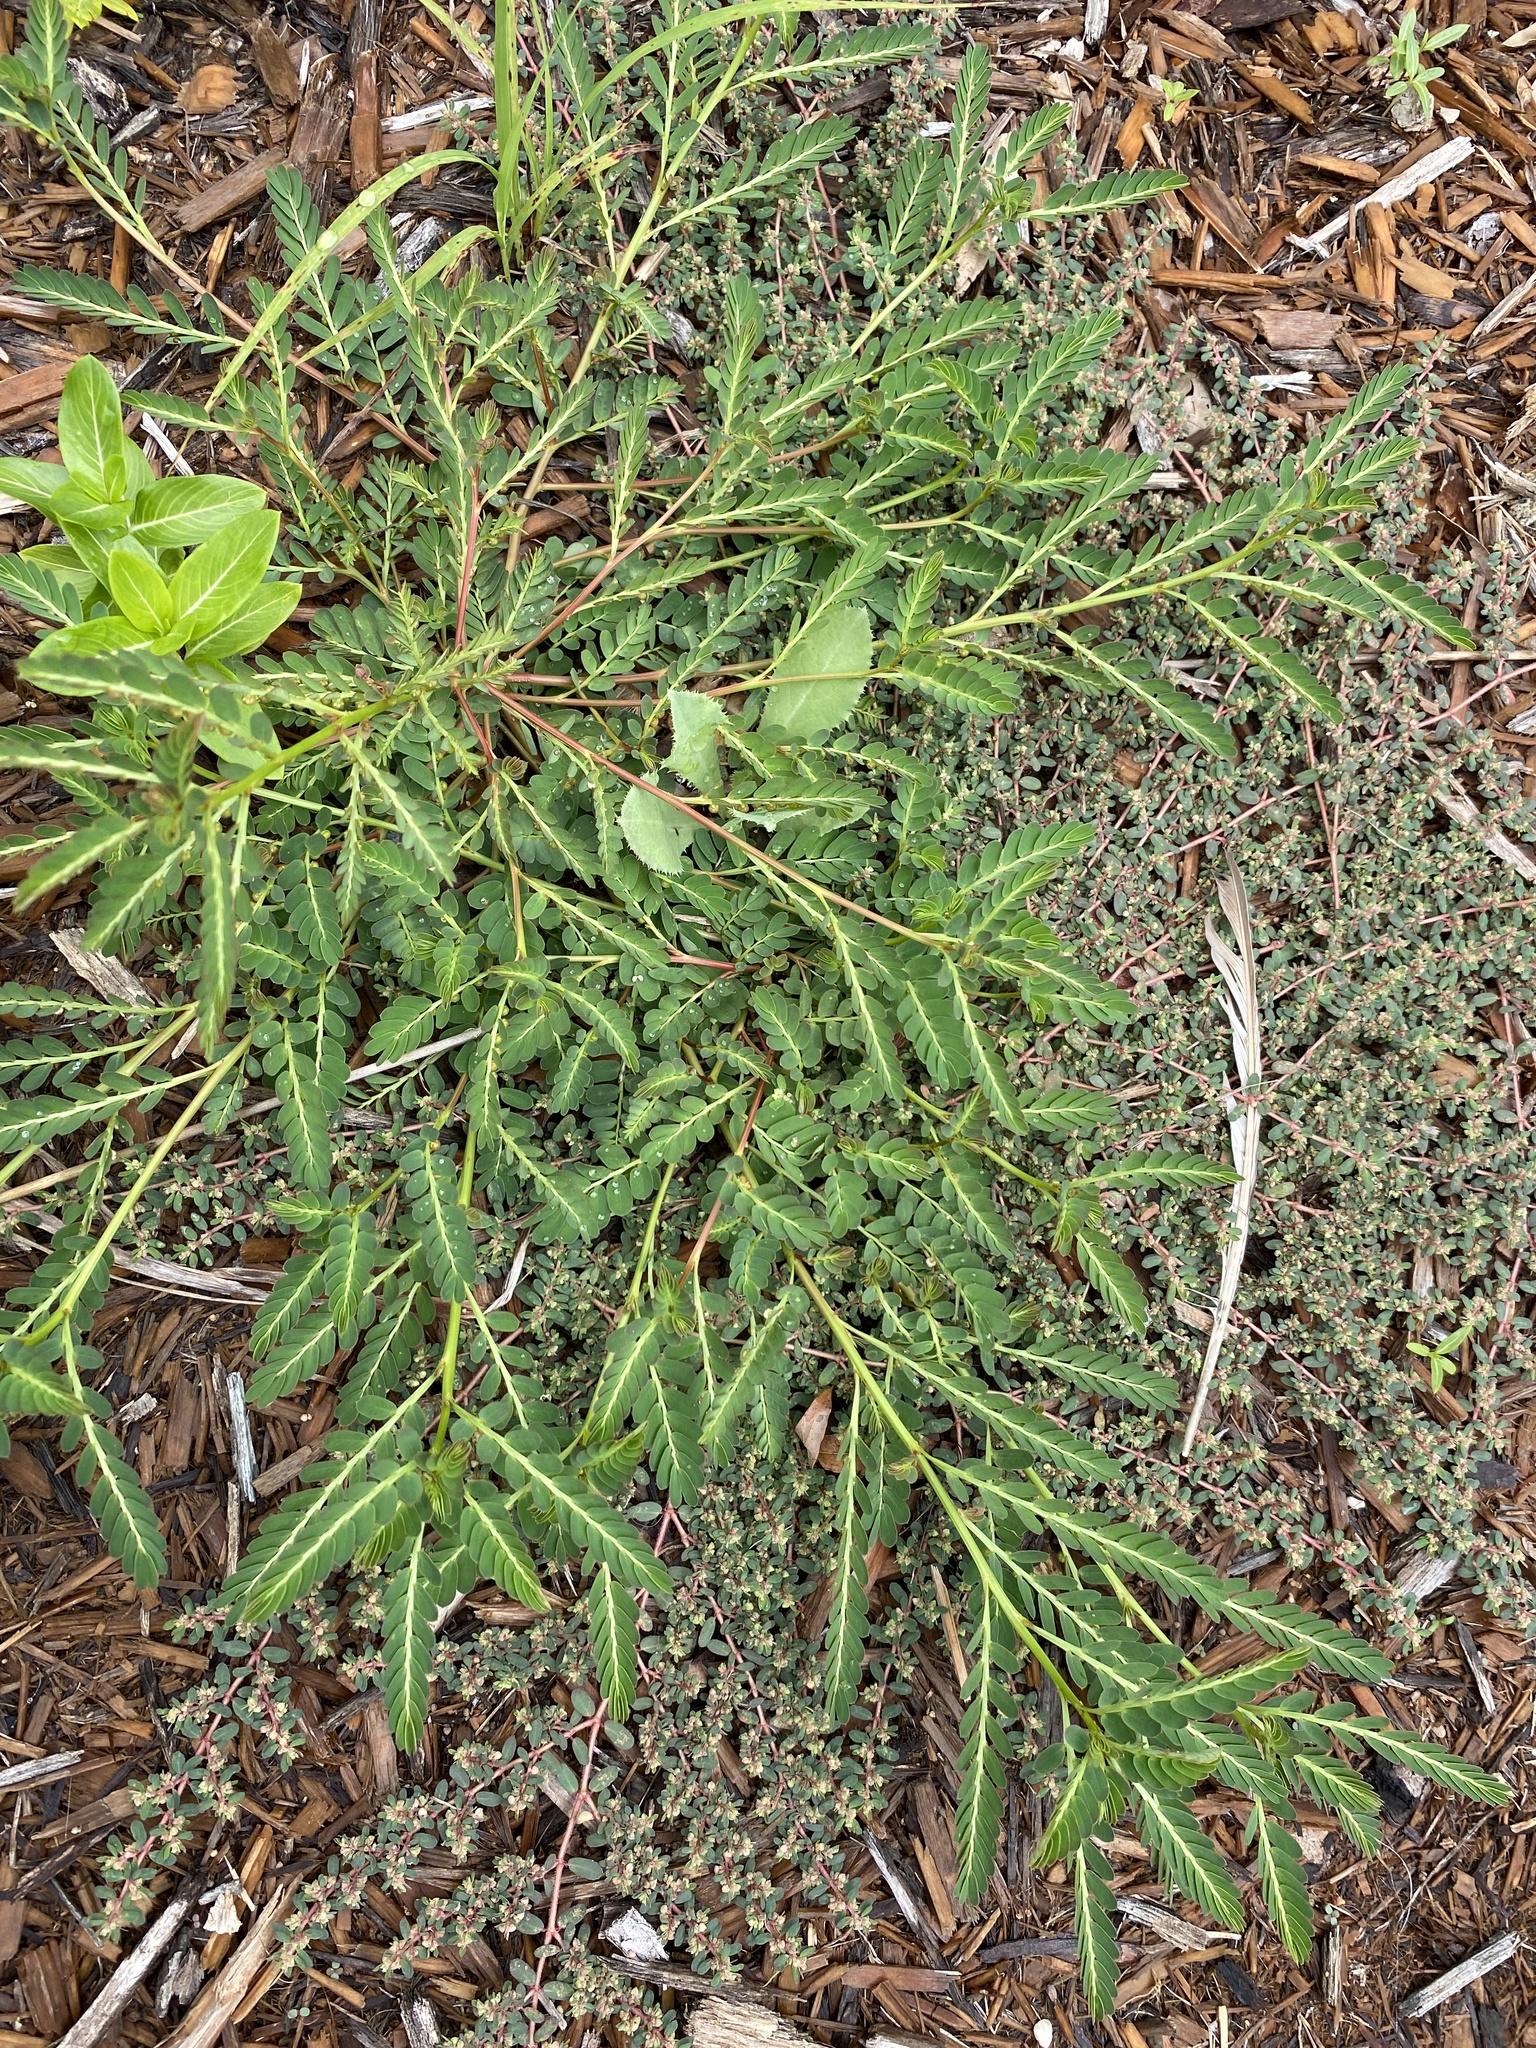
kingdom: Plantae
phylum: Tracheophyta
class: Magnoliopsida
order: Malpighiales
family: Phyllanthaceae
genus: Phyllanthus
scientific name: Phyllanthus urinaria
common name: Chamber bitter
